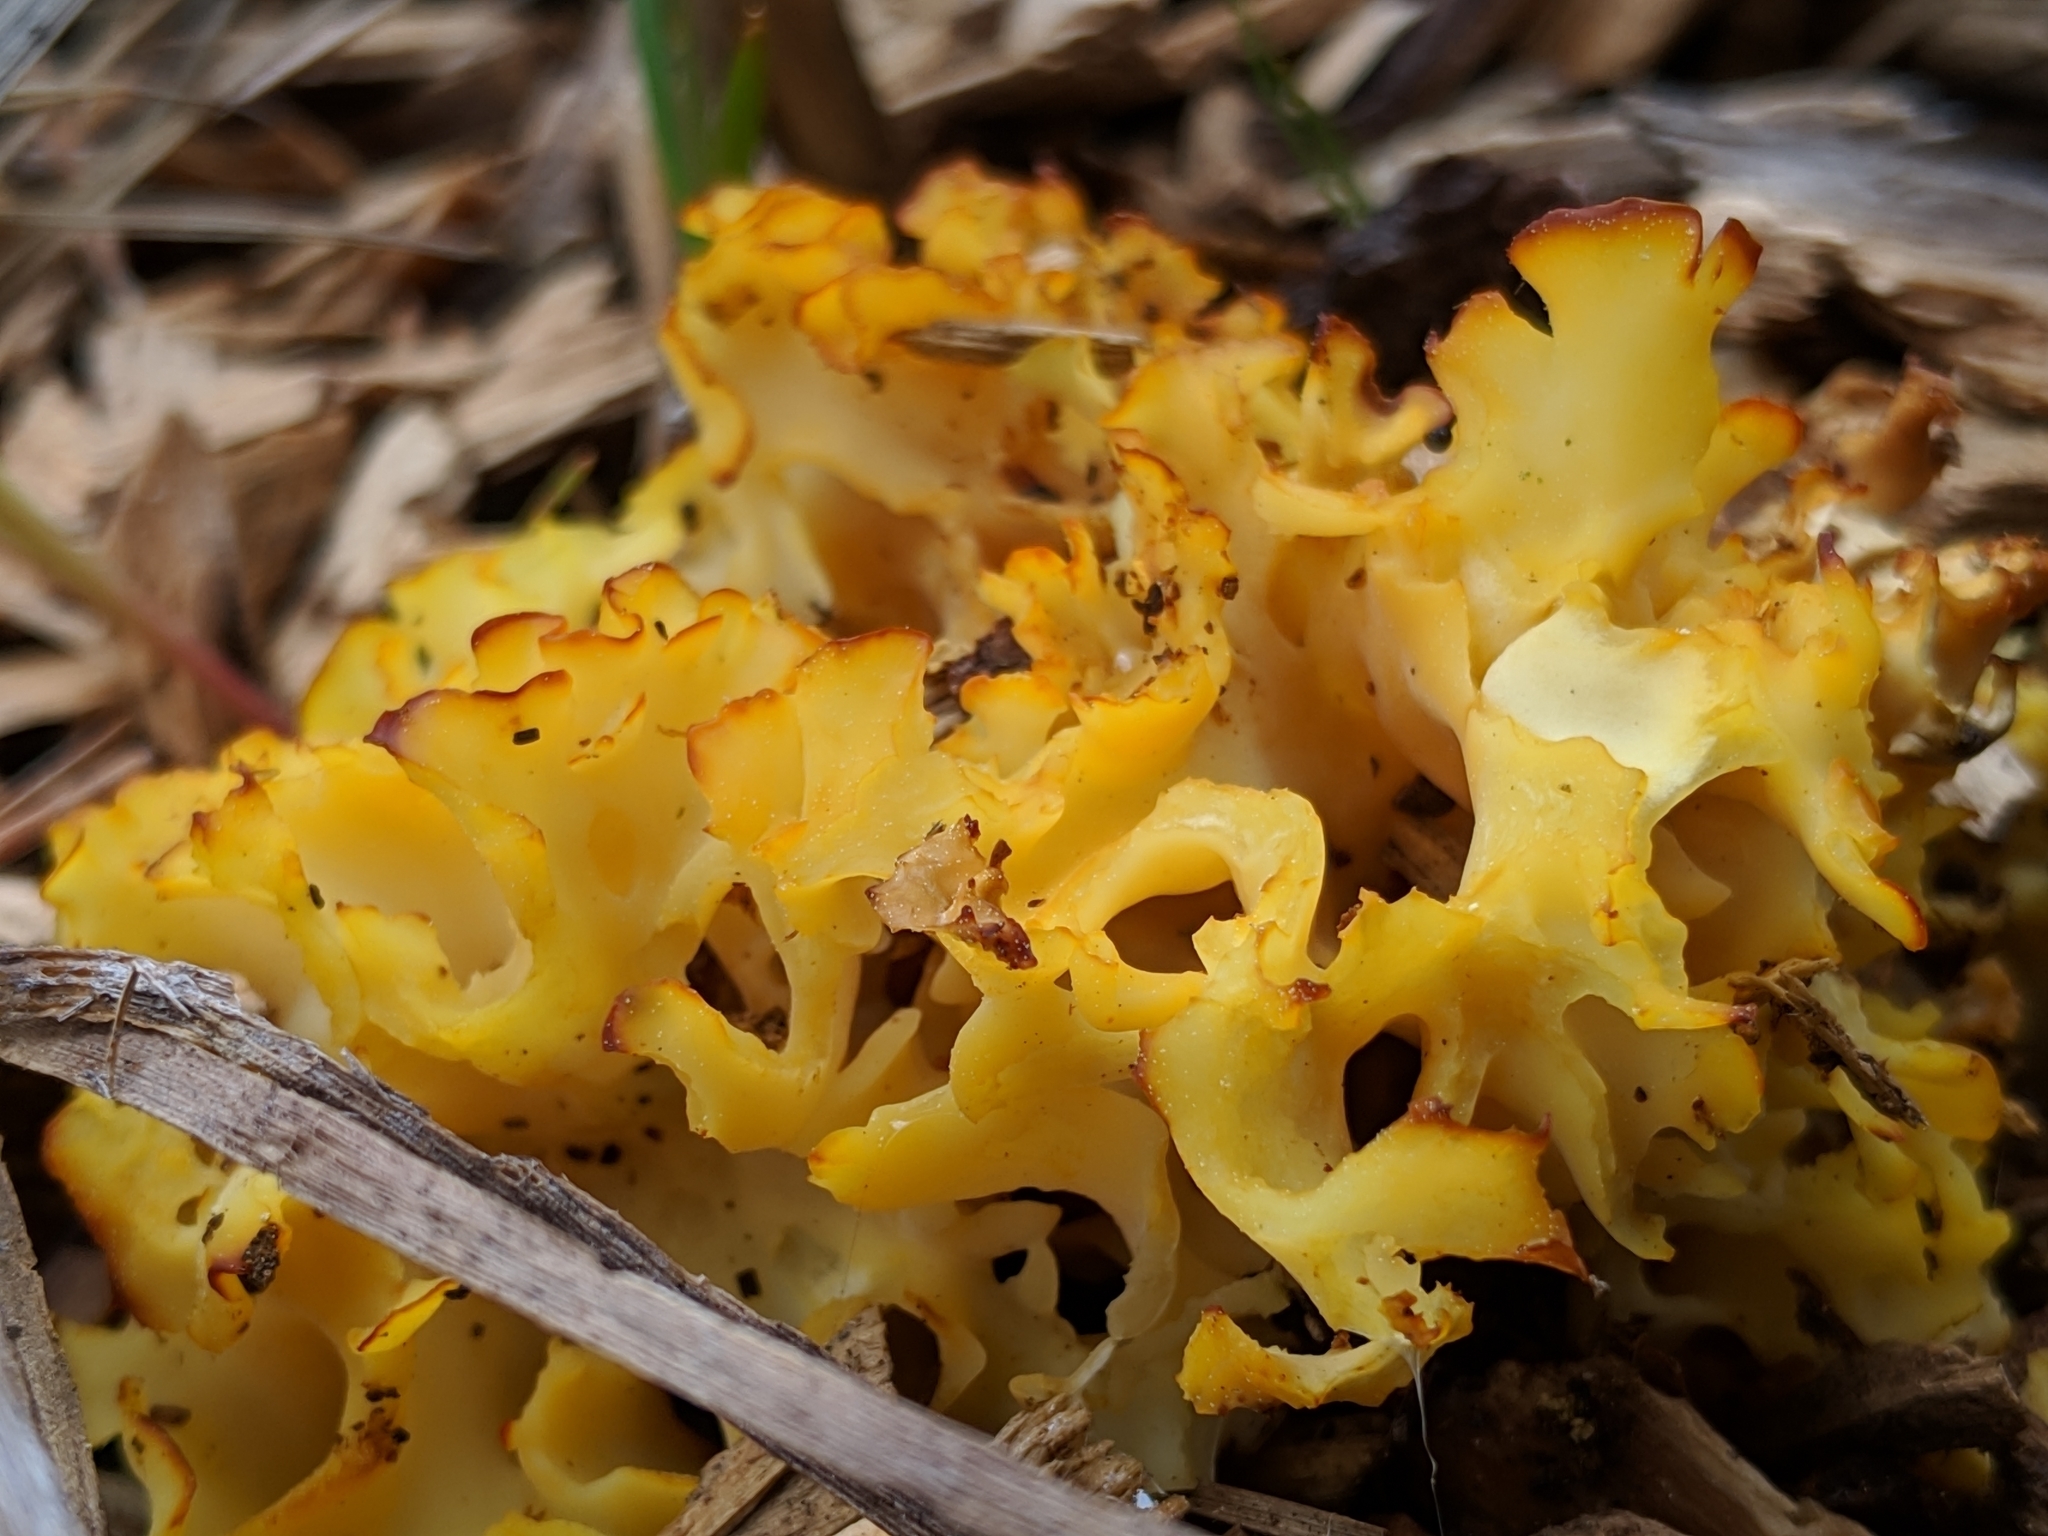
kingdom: Fungi
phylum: Basidiomycota
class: Agaricomycetes
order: Polyporales
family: Sparassidaceae
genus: Sparassis
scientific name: Sparassis radicata
